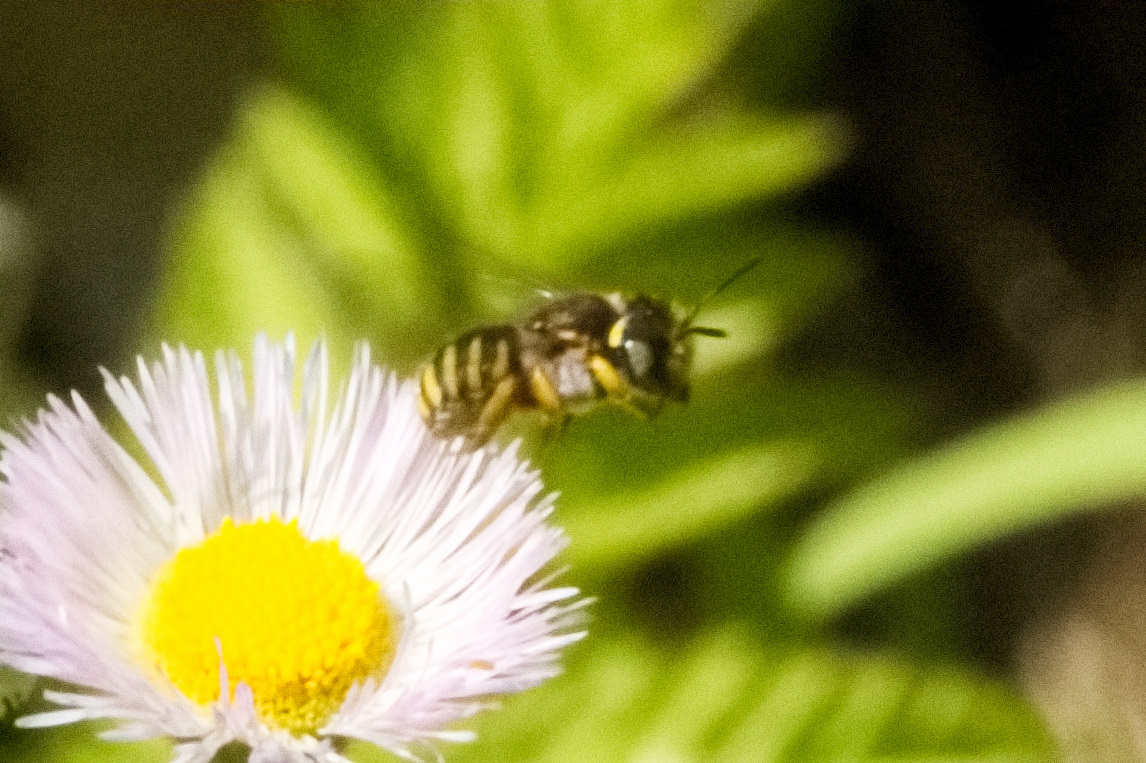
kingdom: Animalia
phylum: Arthropoda
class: Insecta
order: Hymenoptera
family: Megachilidae
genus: Anthidium
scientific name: Anthidium oblongatum
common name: Oblong wool carder bee
